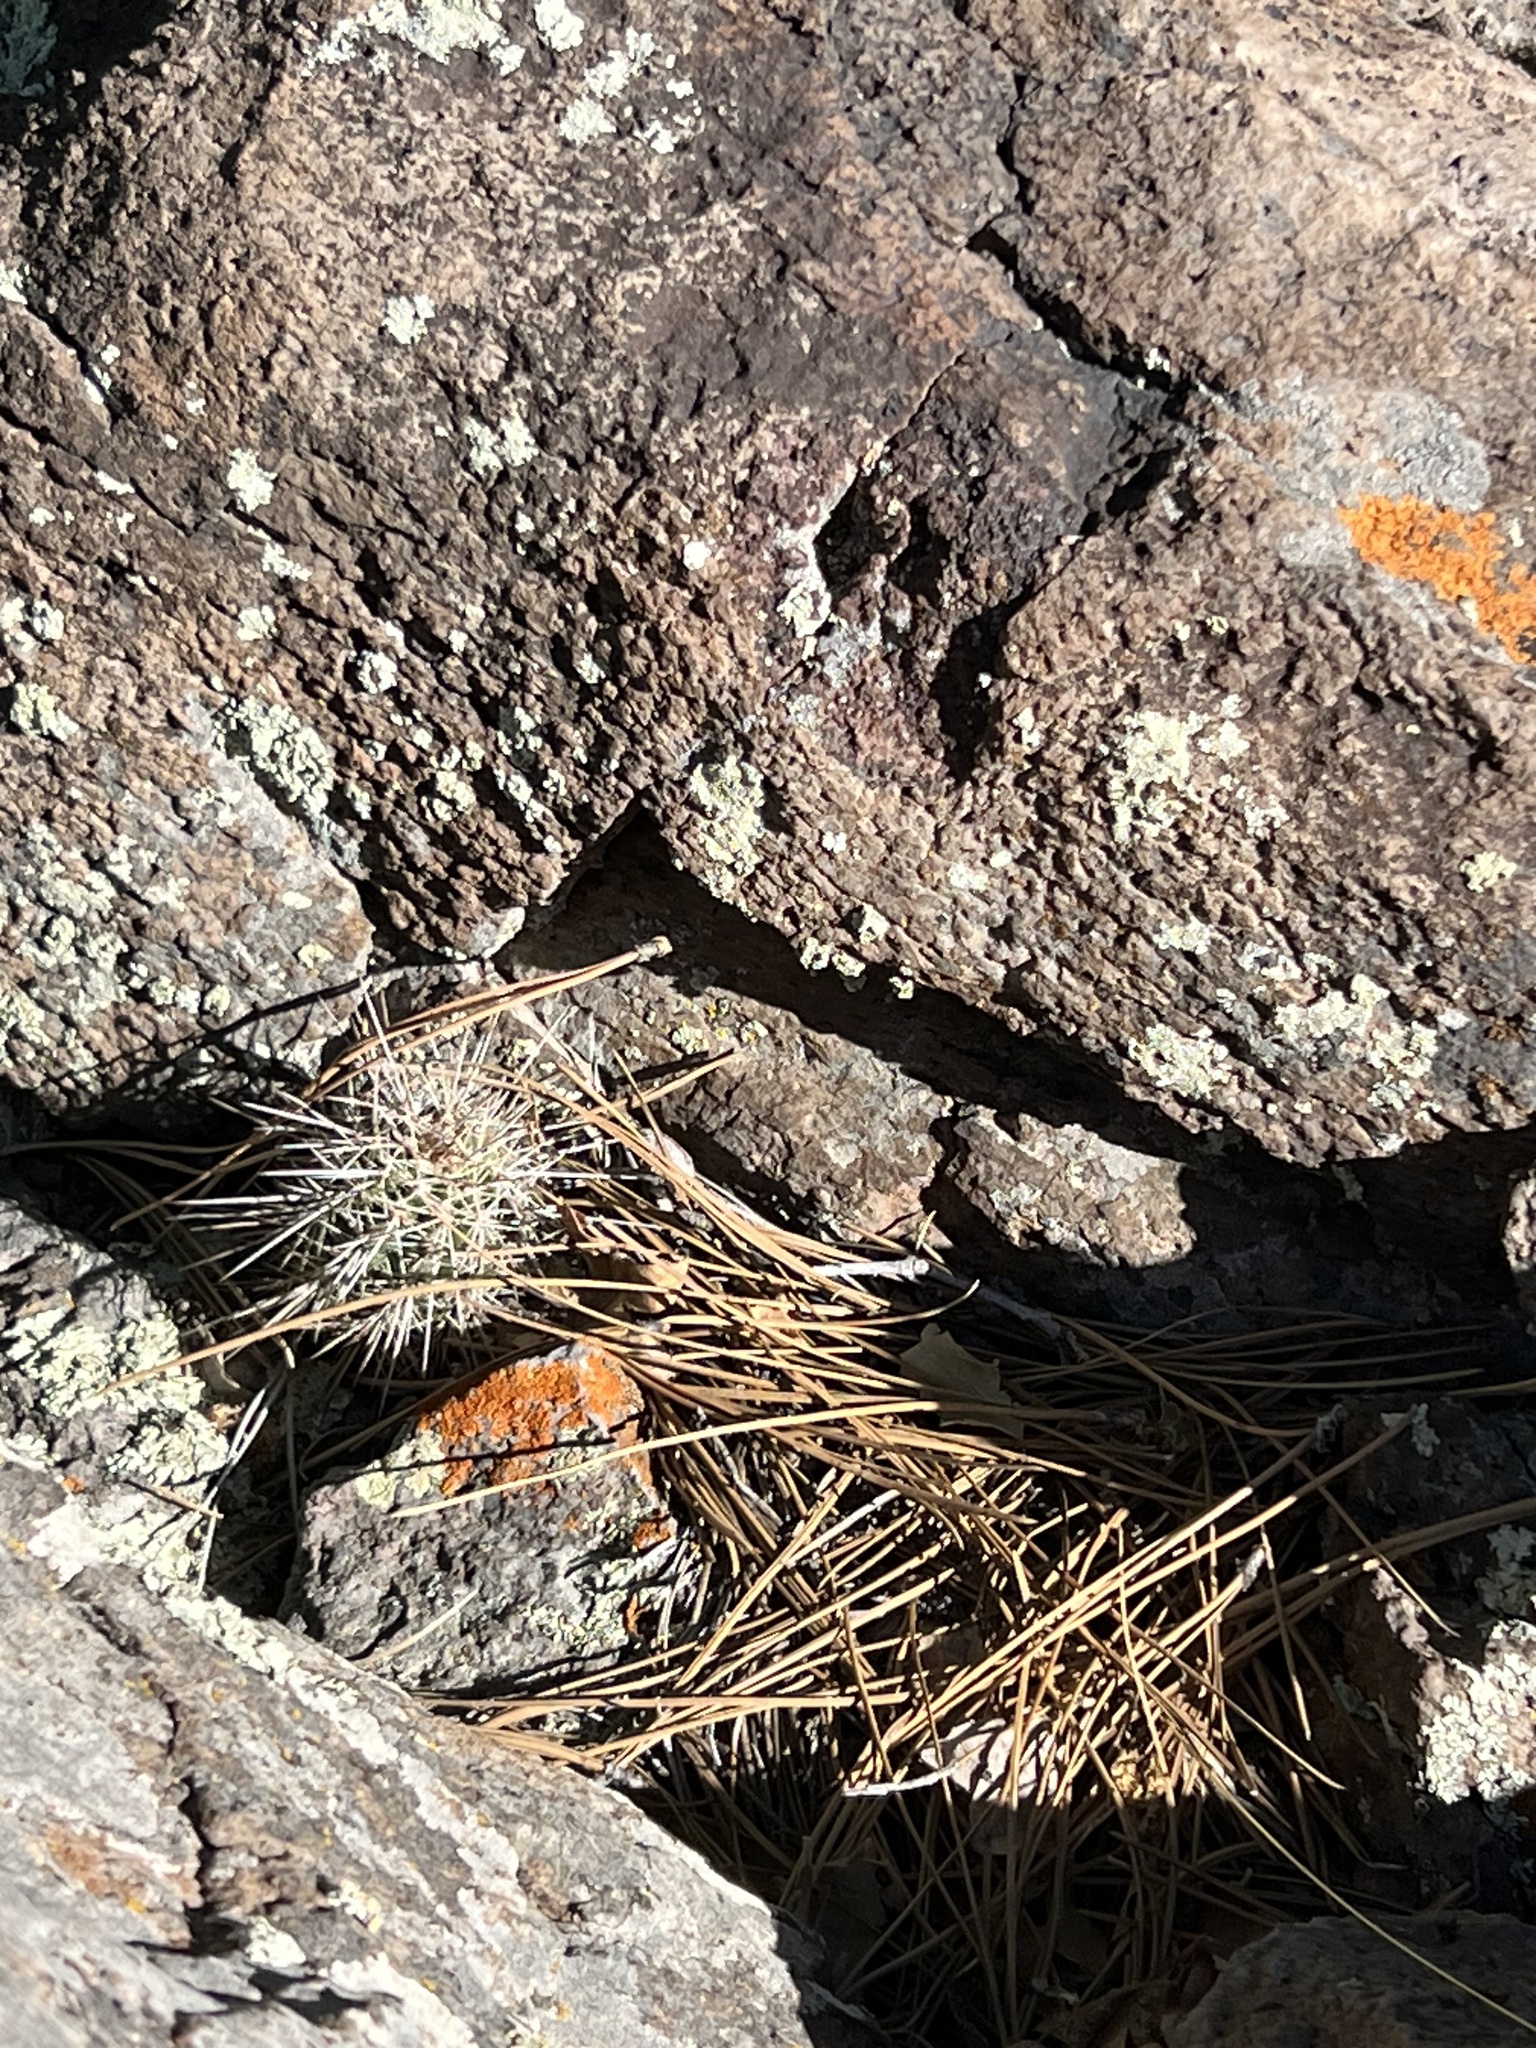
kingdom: Plantae
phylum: Tracheophyta
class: Magnoliopsida
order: Caryophyllales
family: Cactaceae
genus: Echinocereus
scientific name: Echinocereus bakeri
